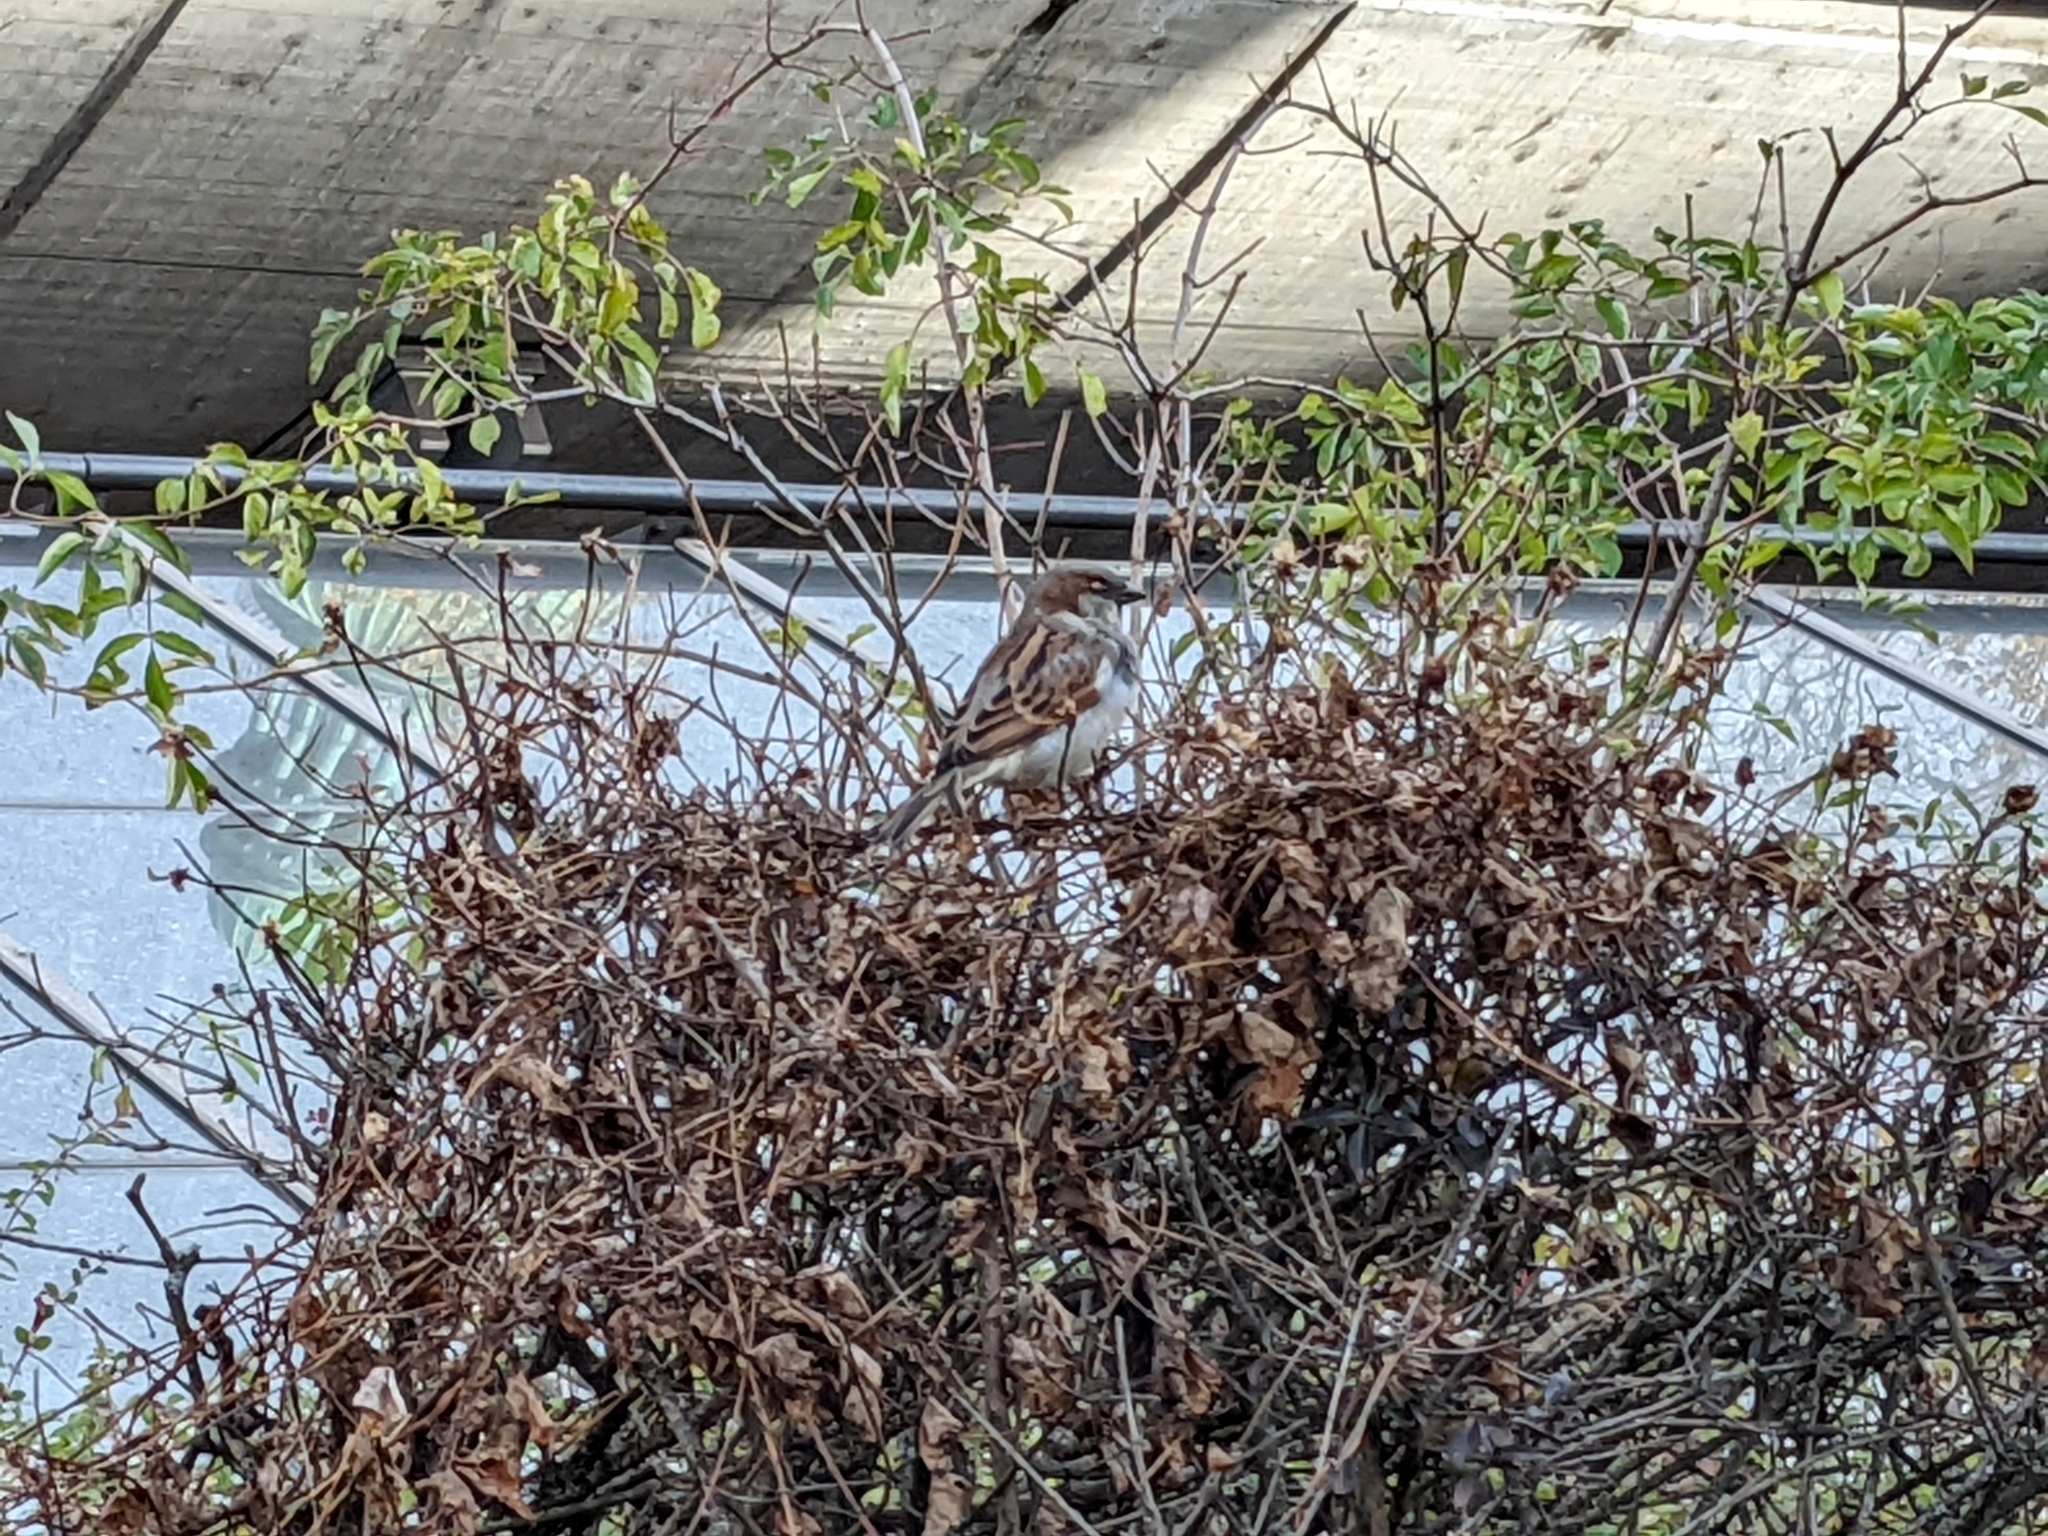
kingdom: Animalia
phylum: Chordata
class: Aves
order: Passeriformes
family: Passeridae
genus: Passer
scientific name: Passer domesticus
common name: House sparrow
